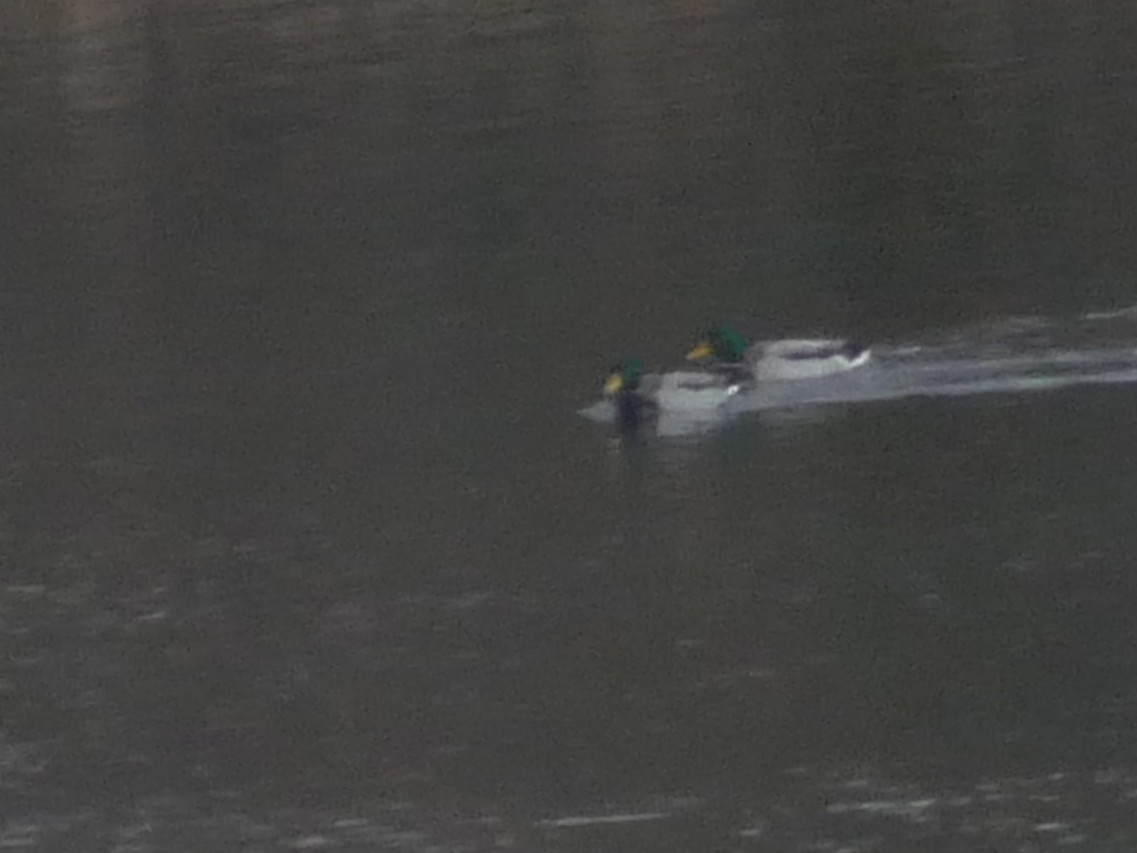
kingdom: Animalia
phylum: Chordata
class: Aves
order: Anseriformes
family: Anatidae
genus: Anas
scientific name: Anas platyrhynchos
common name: Mallard
